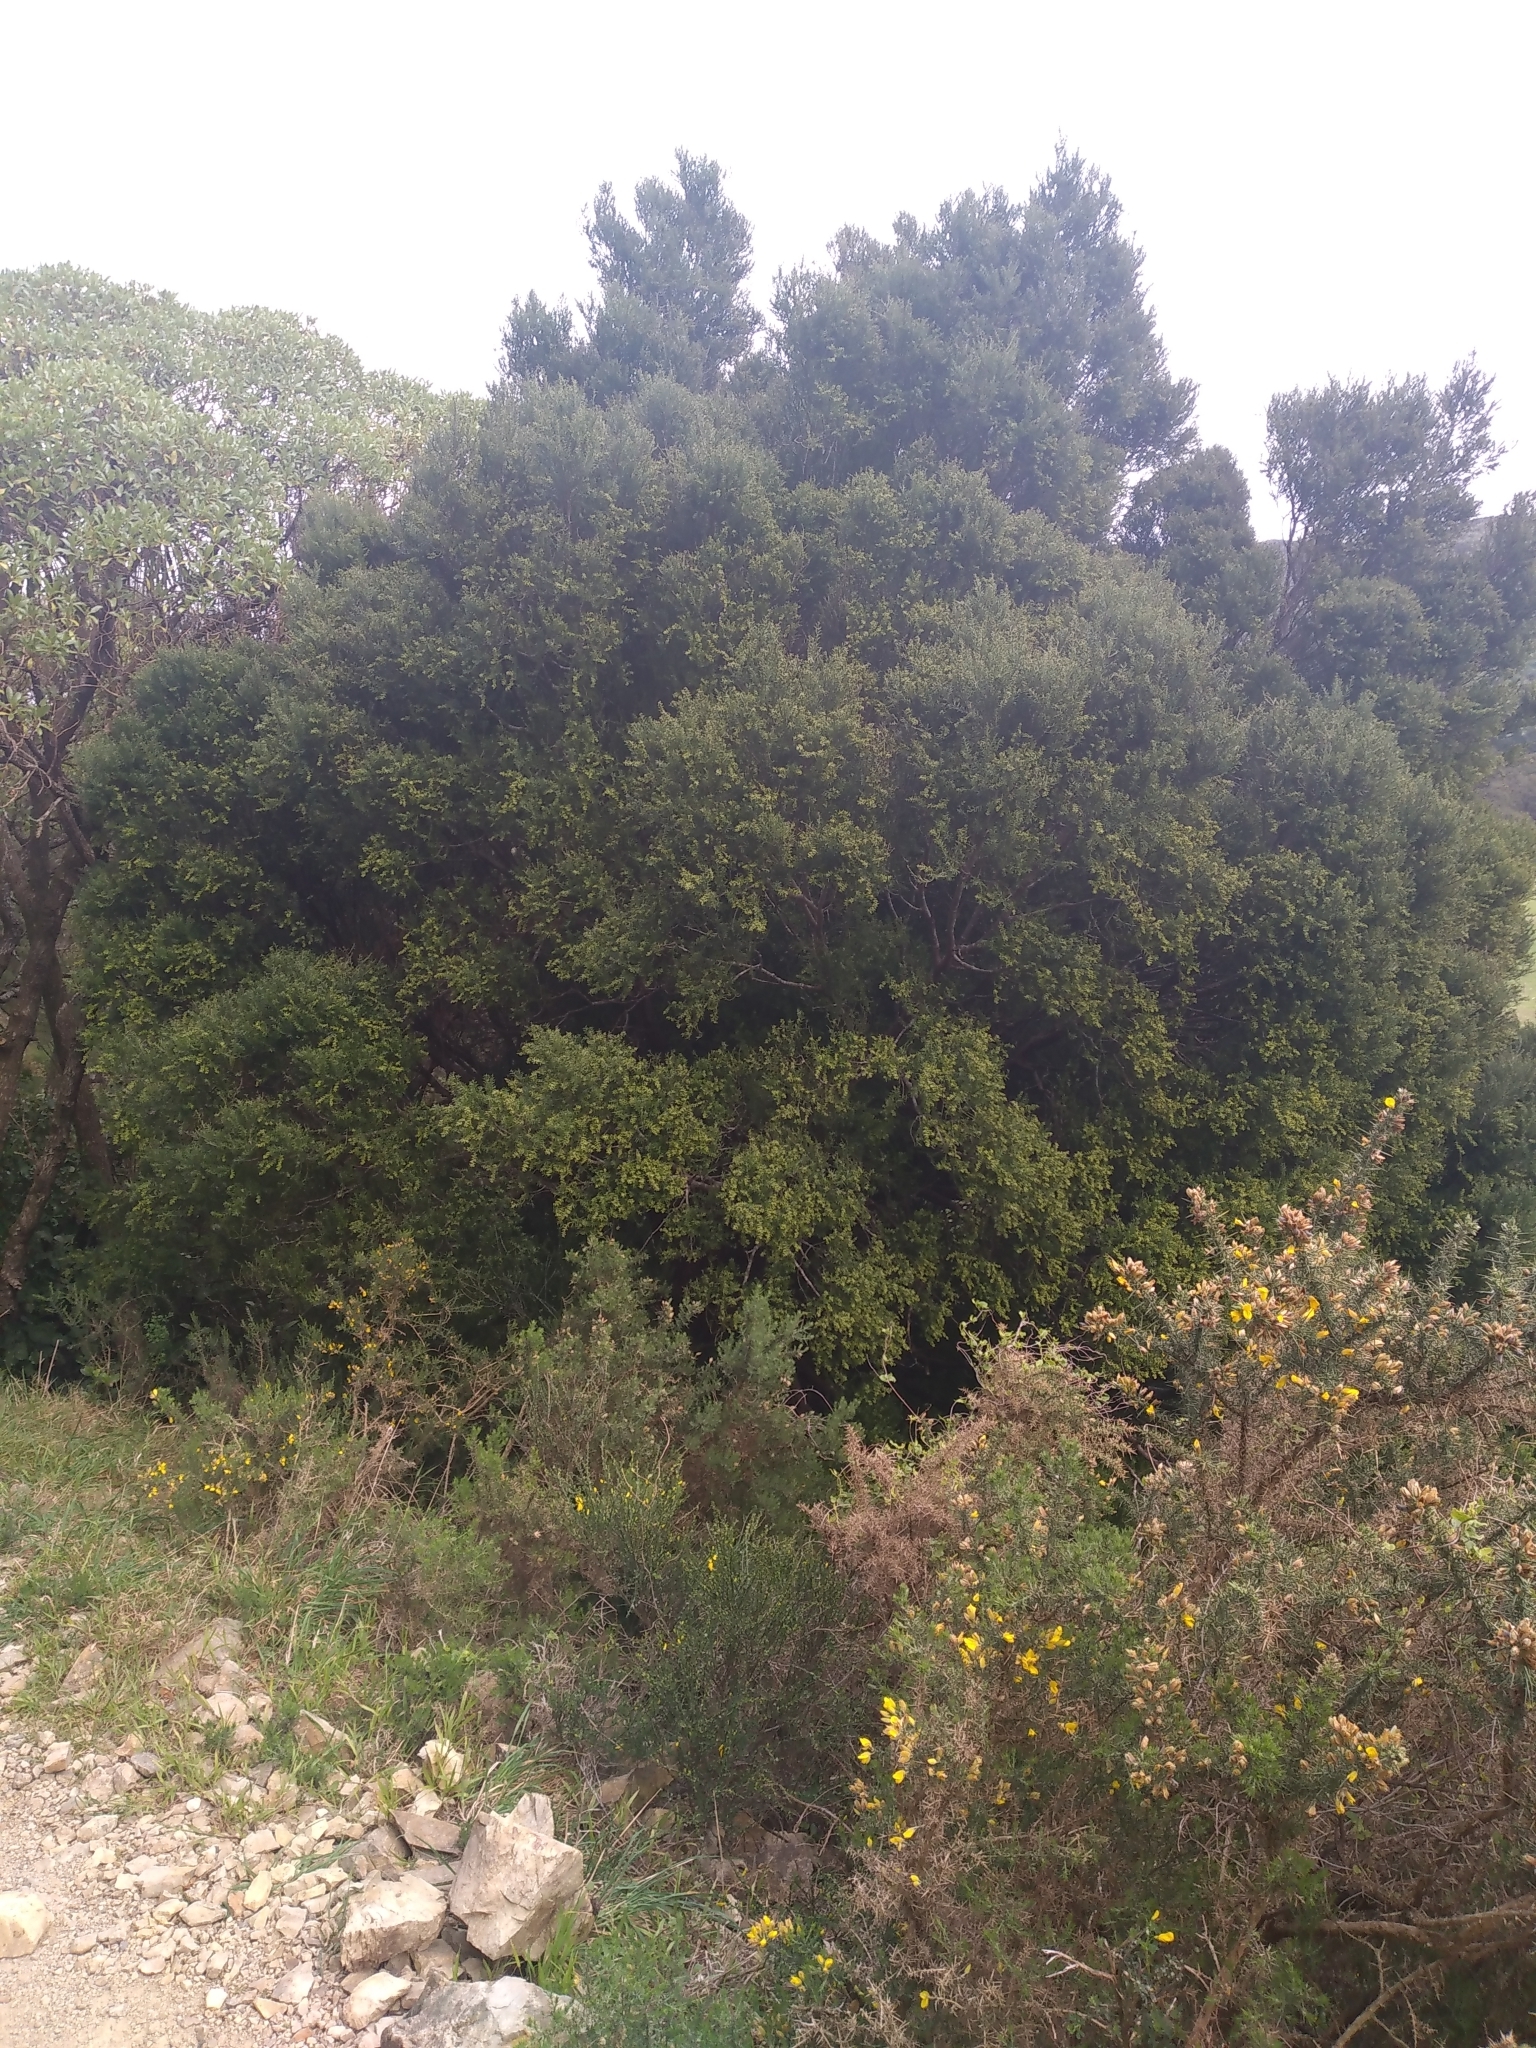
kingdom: Plantae
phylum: Tracheophyta
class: Pinopsida
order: Pinales
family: Podocarpaceae
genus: Prumnopitys
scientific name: Prumnopitys taxifolia
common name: Matai
